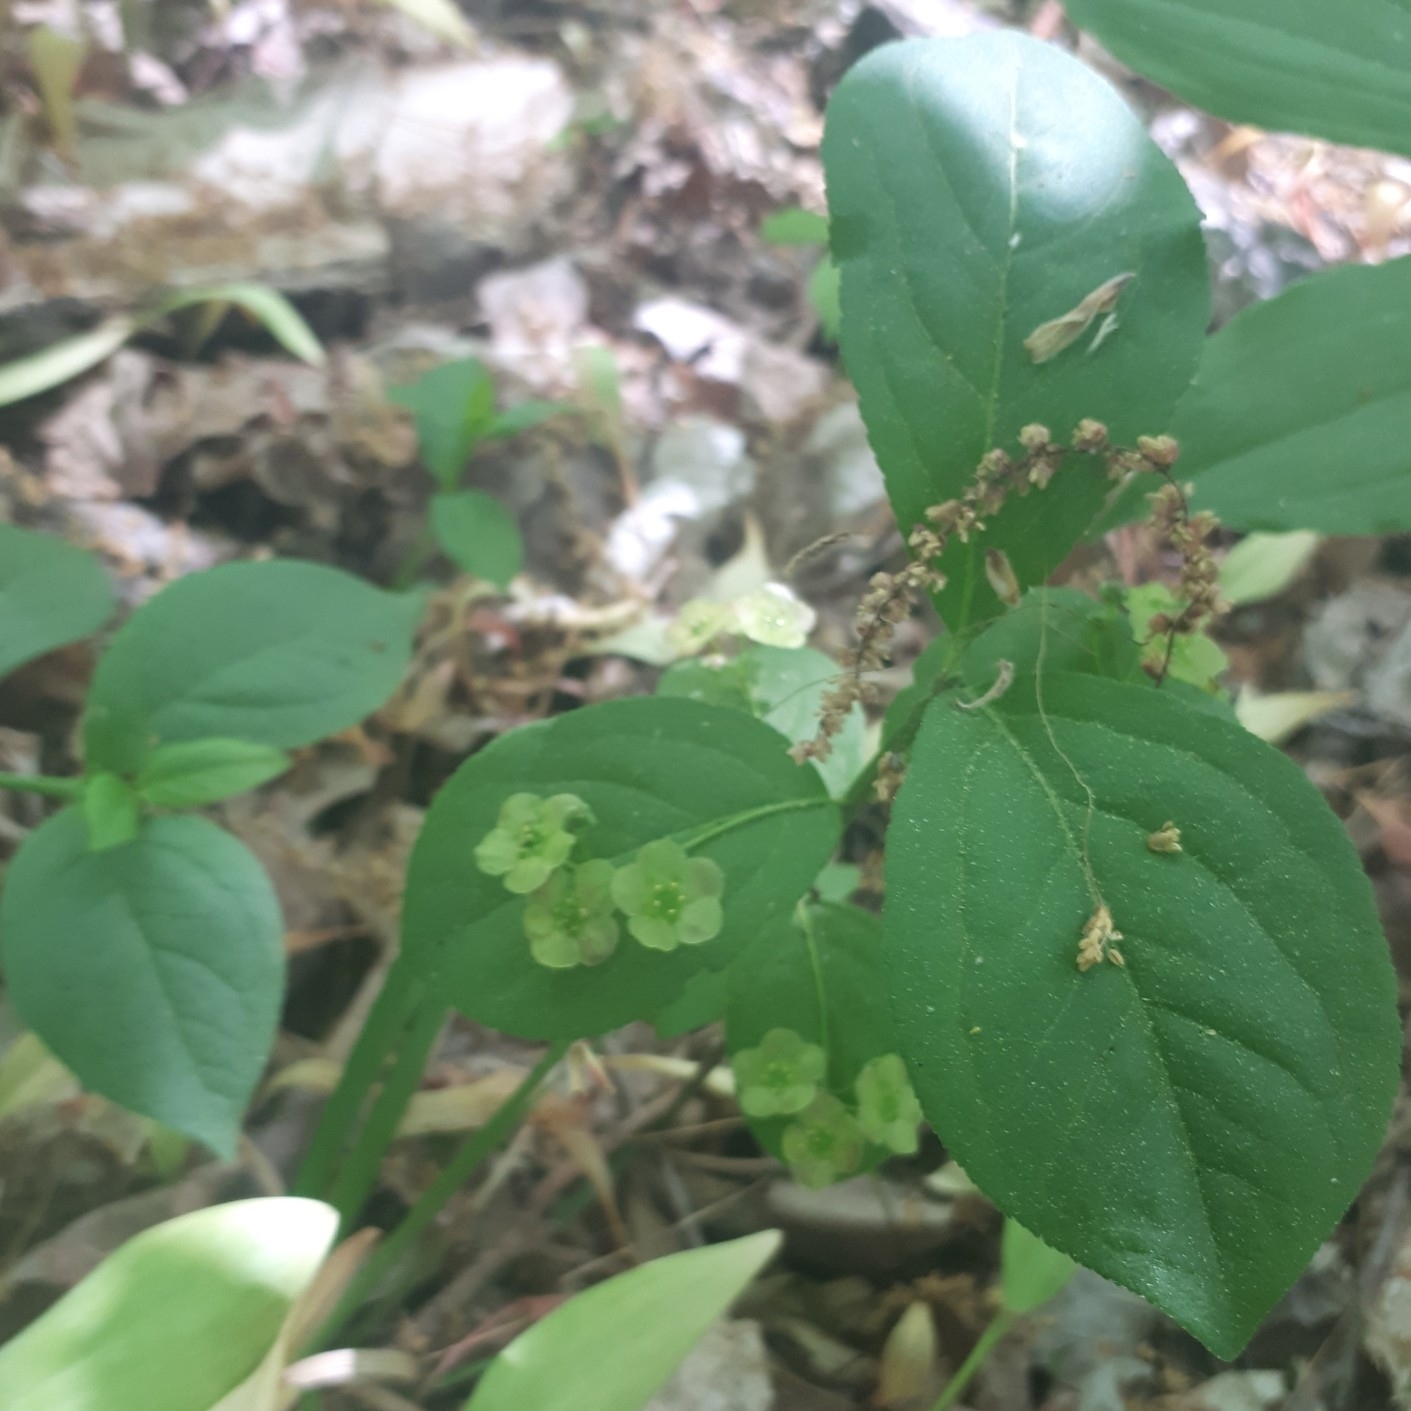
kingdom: Plantae
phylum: Tracheophyta
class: Magnoliopsida
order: Celastrales
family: Celastraceae
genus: Euonymus
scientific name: Euonymus obovatus
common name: Running strawberry-bush
